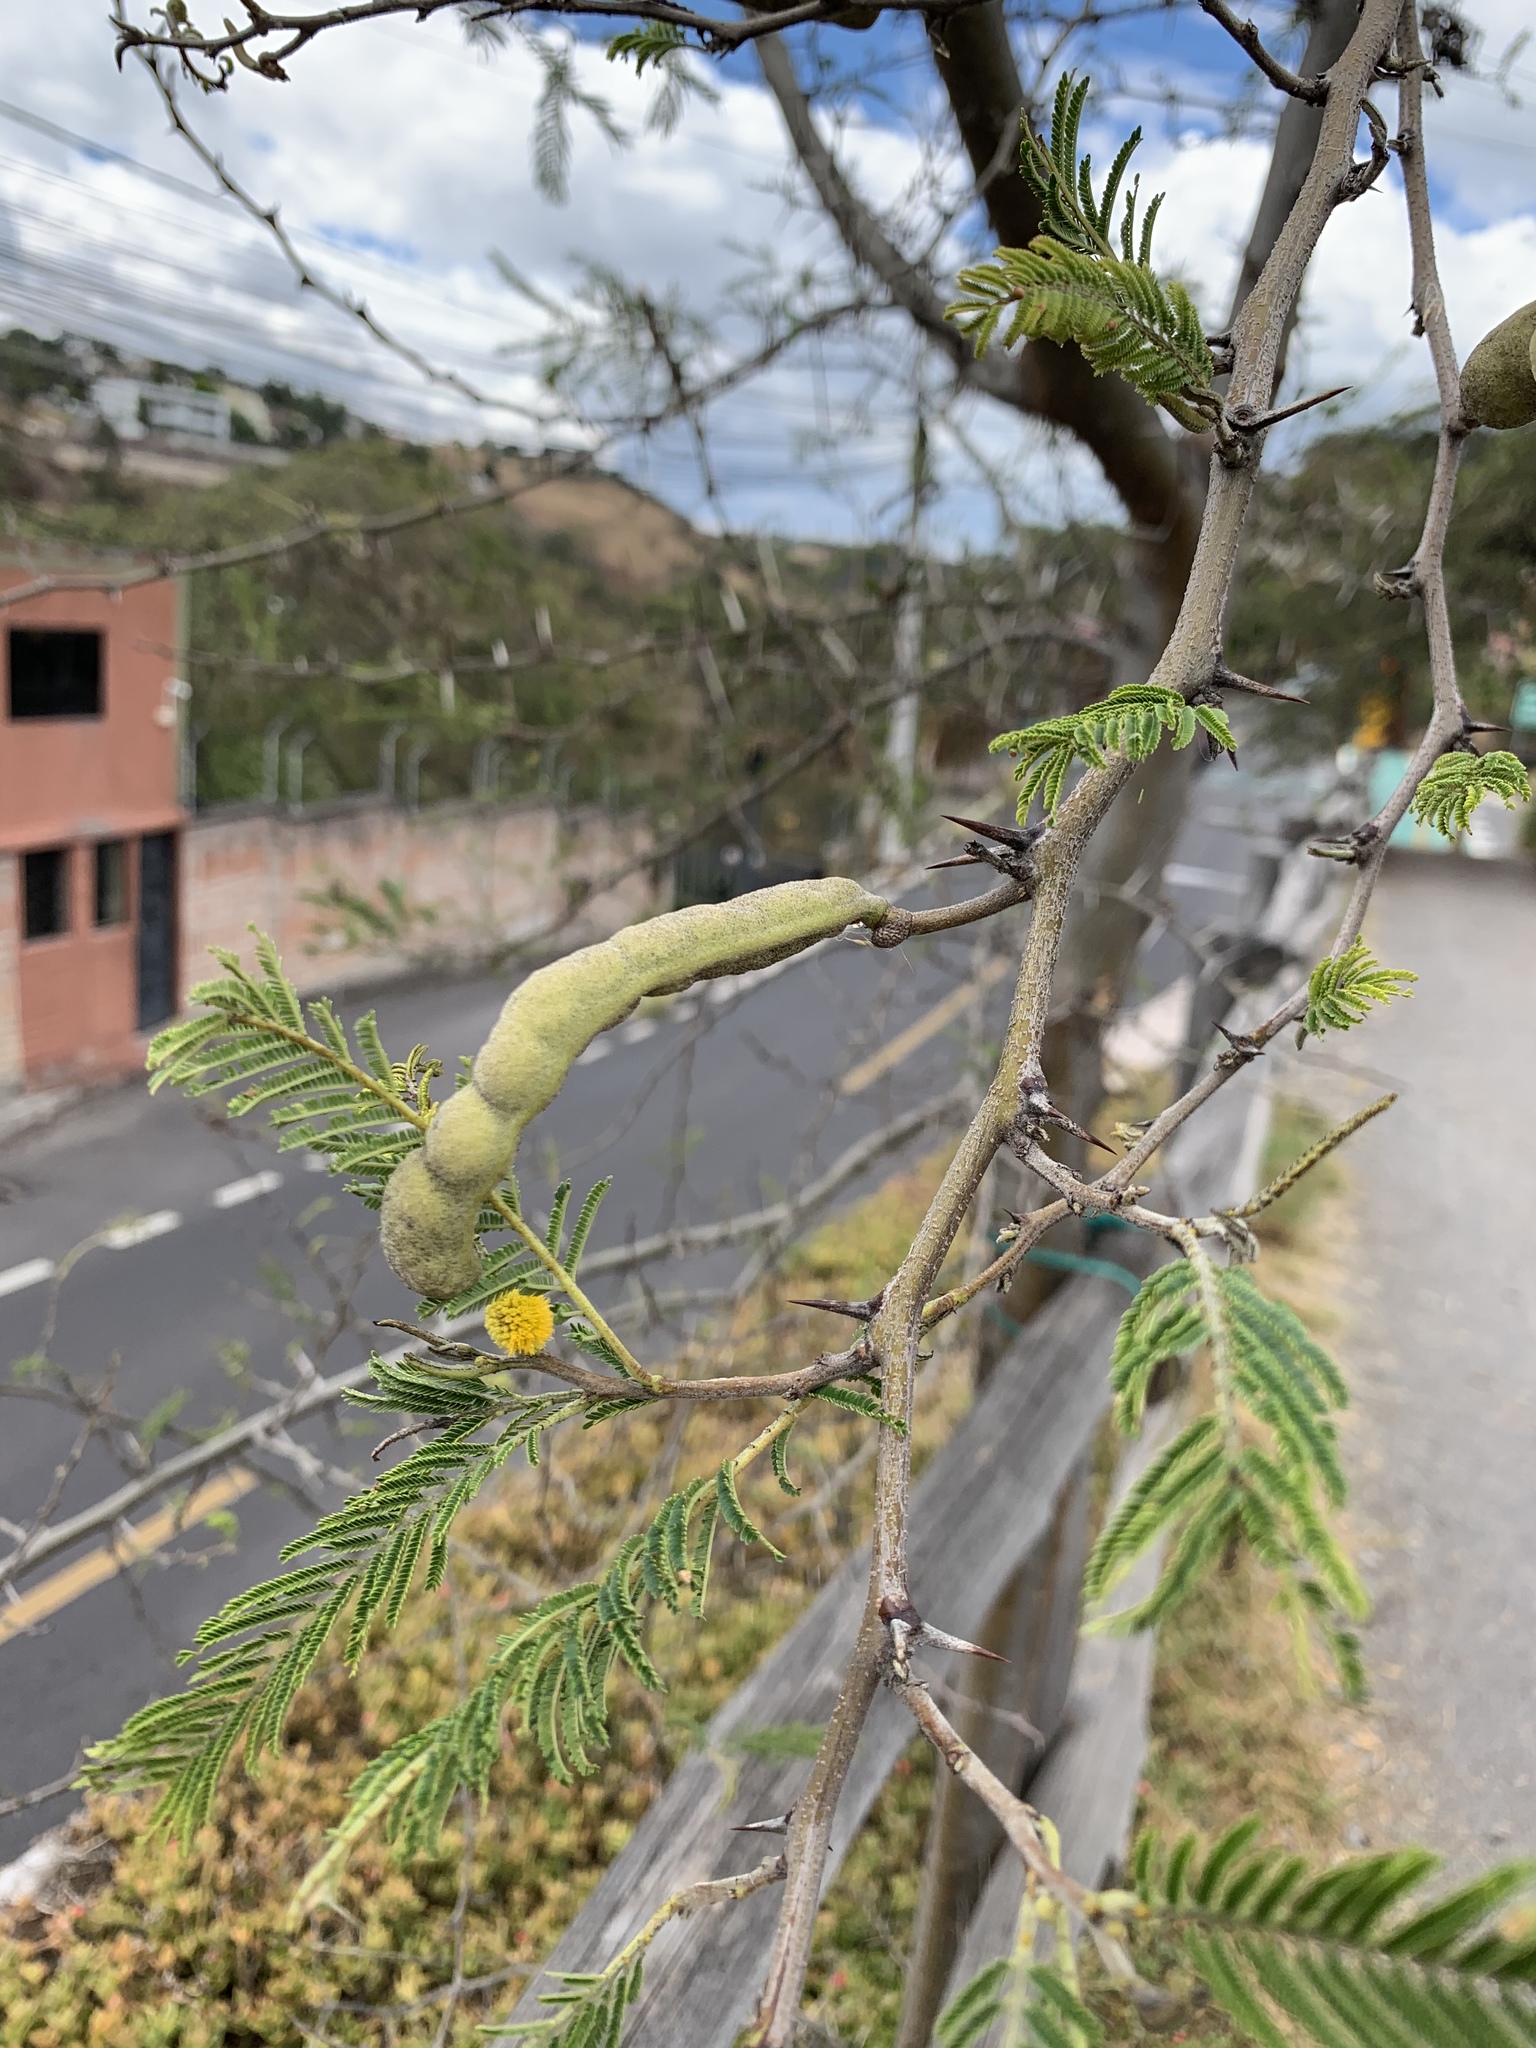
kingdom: Plantae
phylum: Tracheophyta
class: Magnoliopsida
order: Fabales
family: Fabaceae
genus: Vachellia
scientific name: Vachellia macracantha
